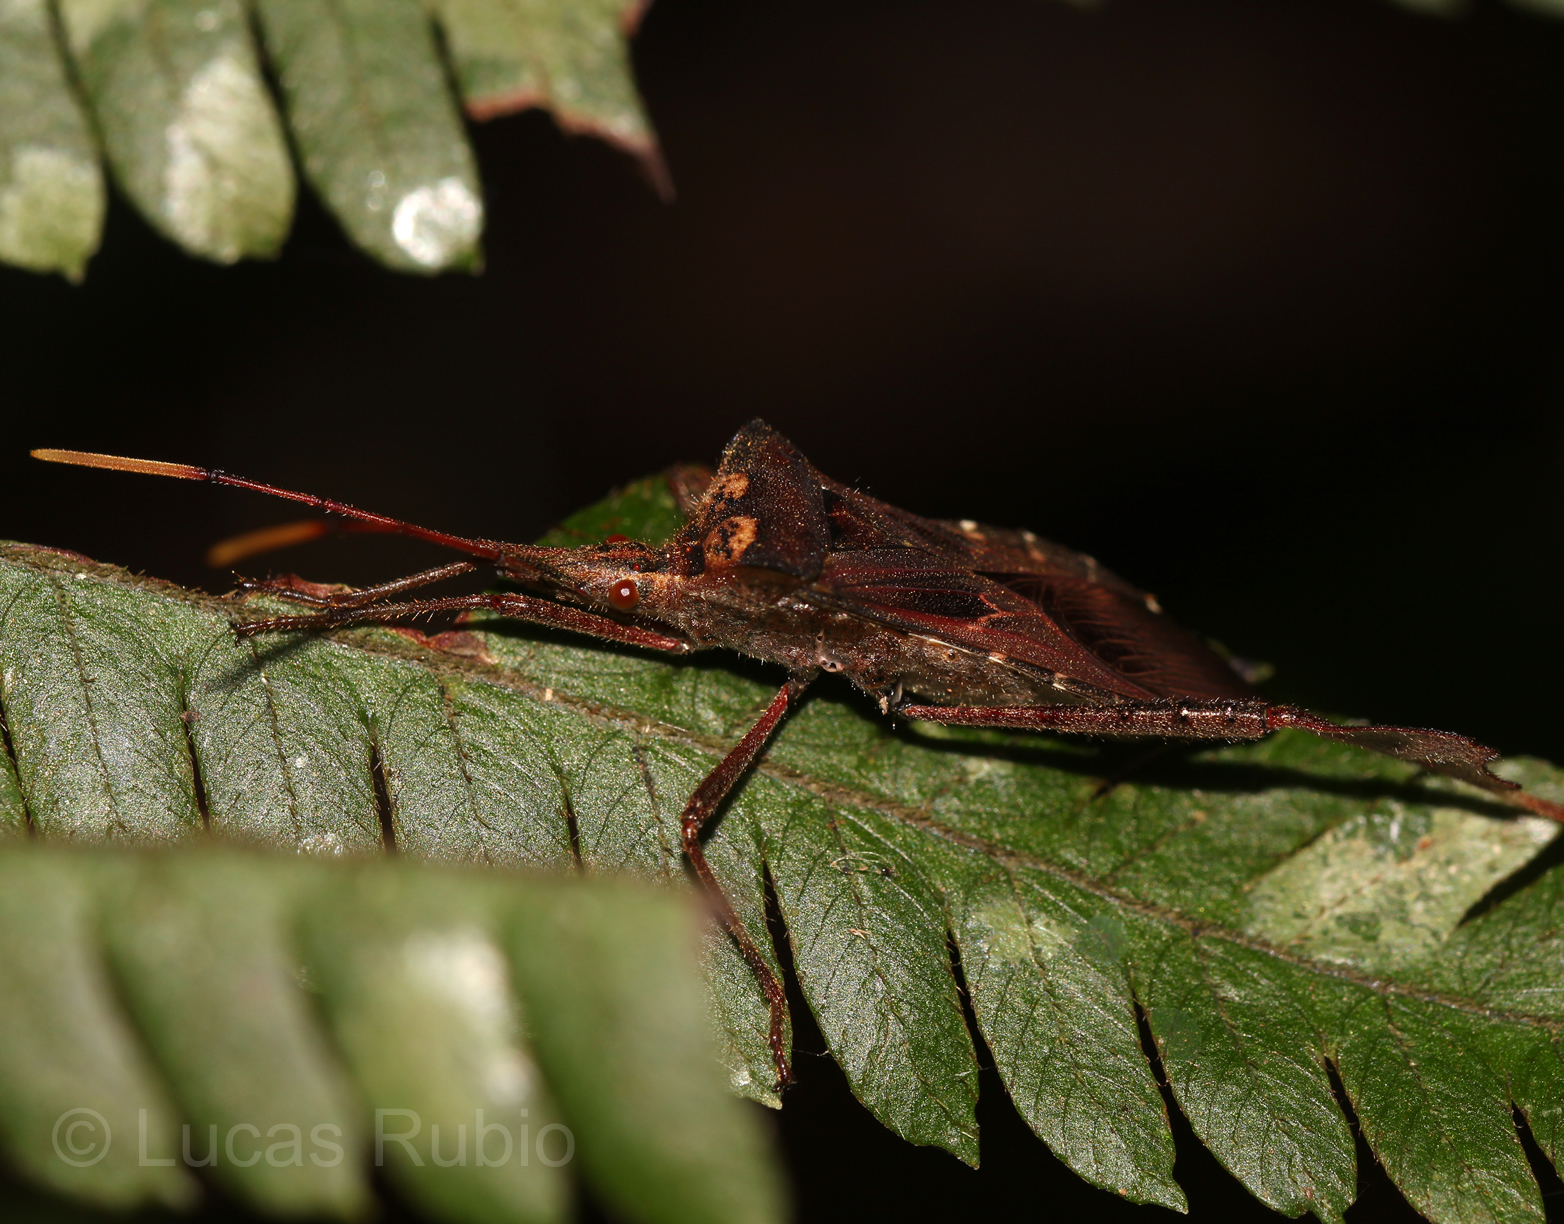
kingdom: Animalia
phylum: Arthropoda
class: Insecta
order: Hemiptera
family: Coreidae
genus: Leptoglossus
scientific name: Leptoglossus neovexillatus
